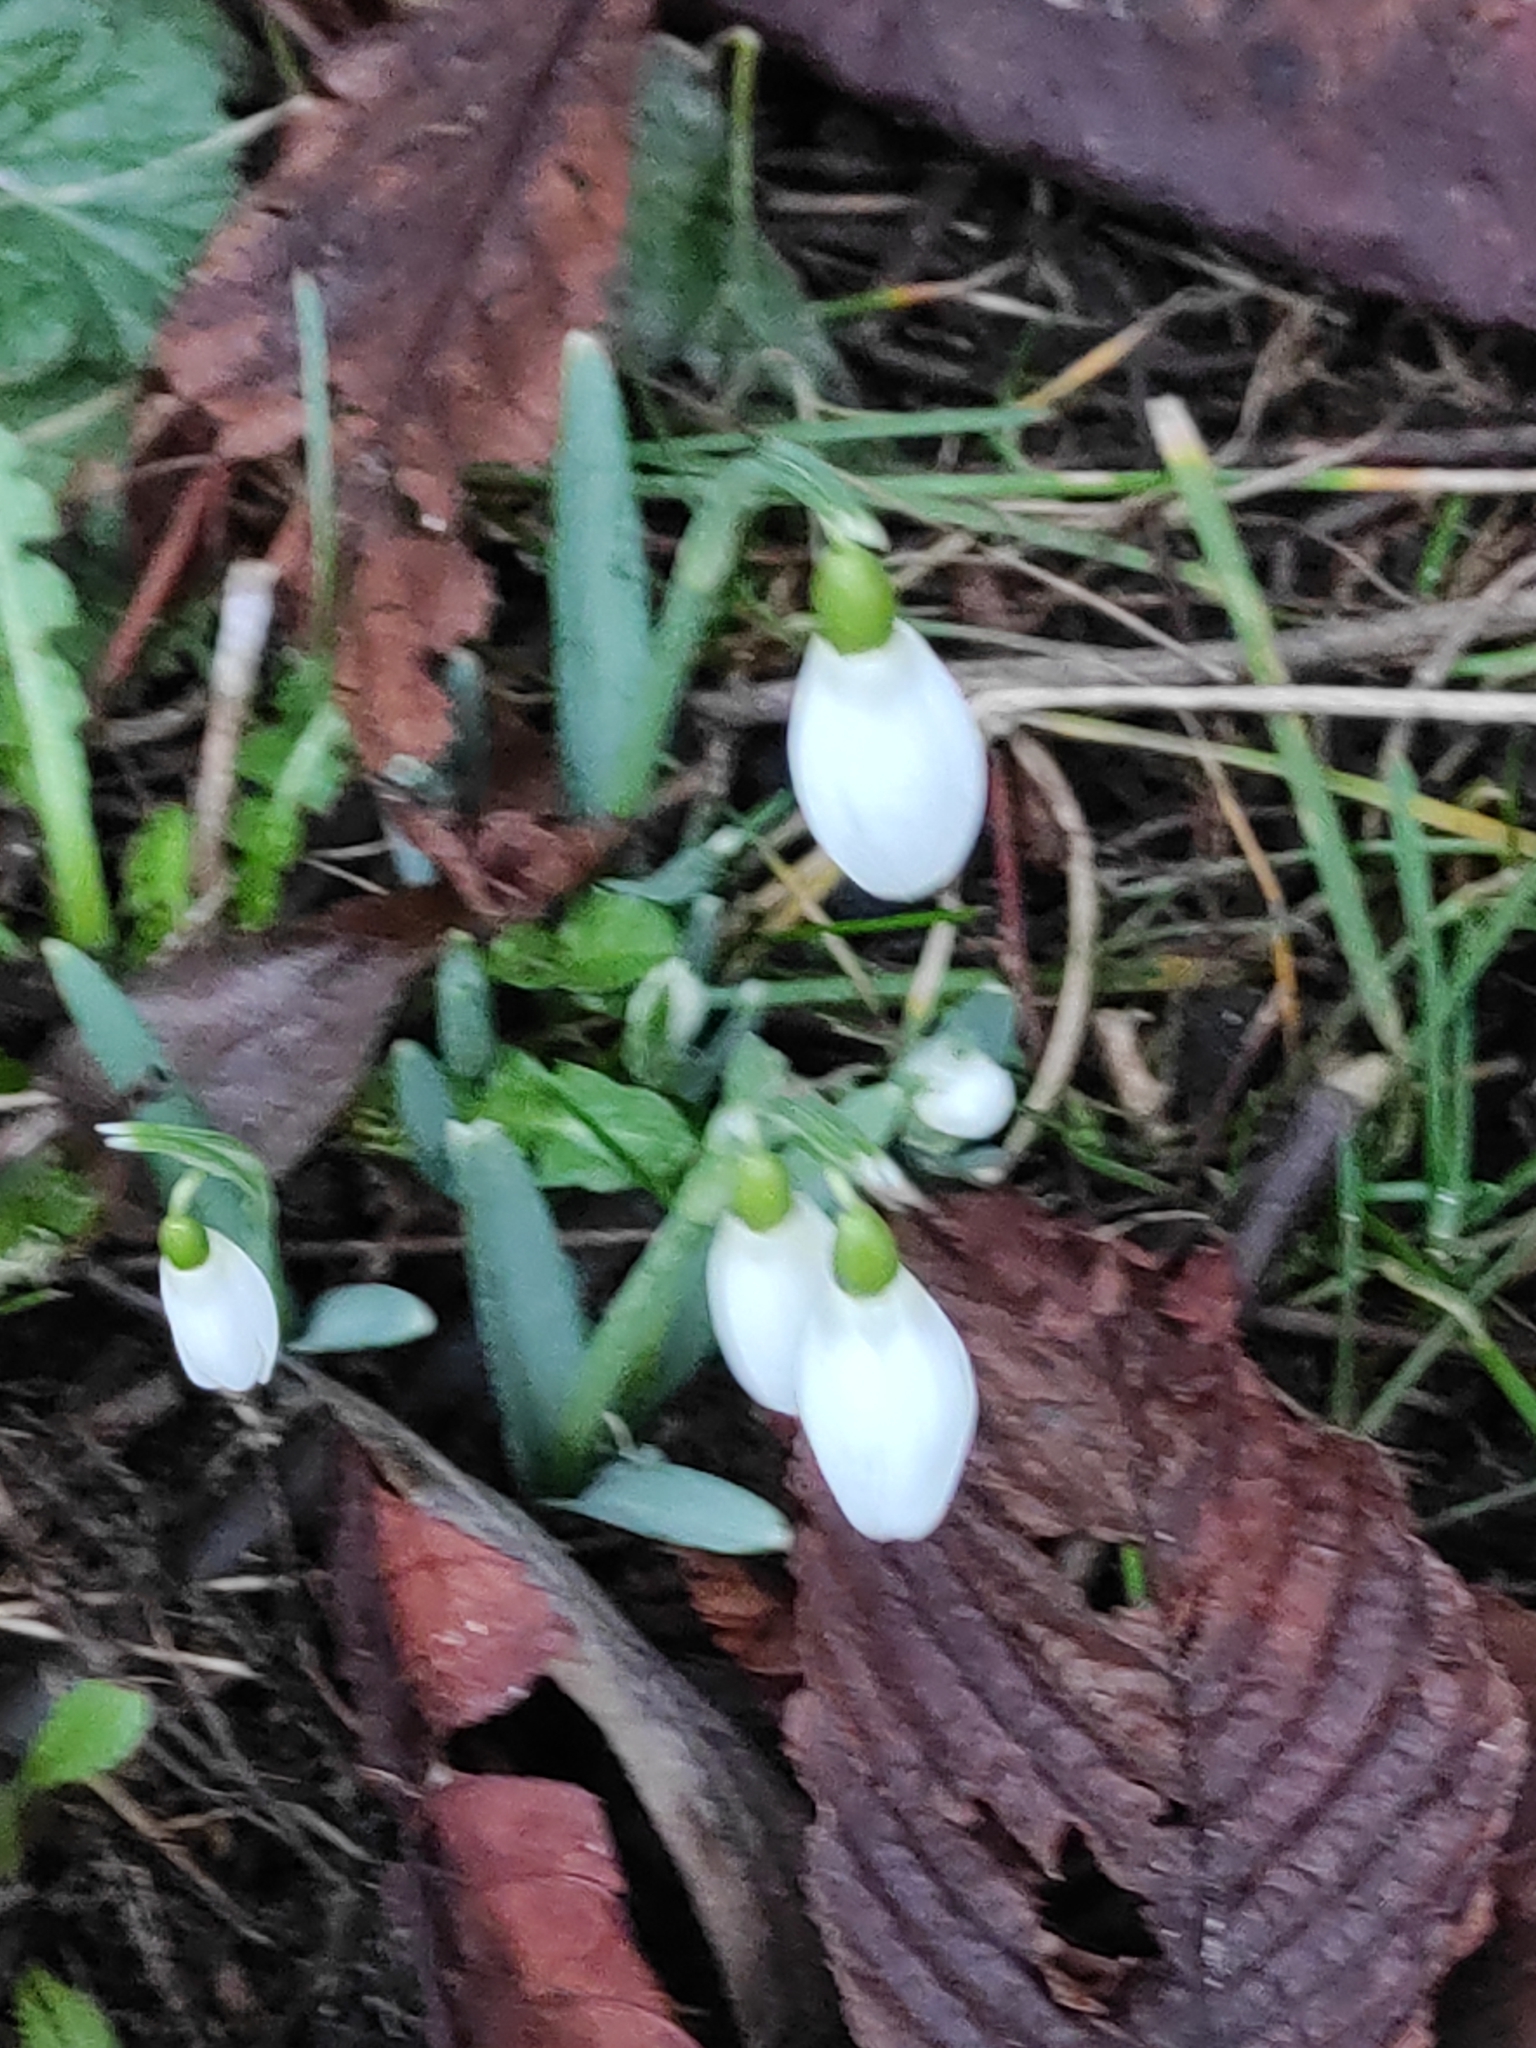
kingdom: Plantae
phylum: Tracheophyta
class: Liliopsida
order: Asparagales
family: Amaryllidaceae
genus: Galanthus
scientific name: Galanthus nivalis
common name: Snowdrop
